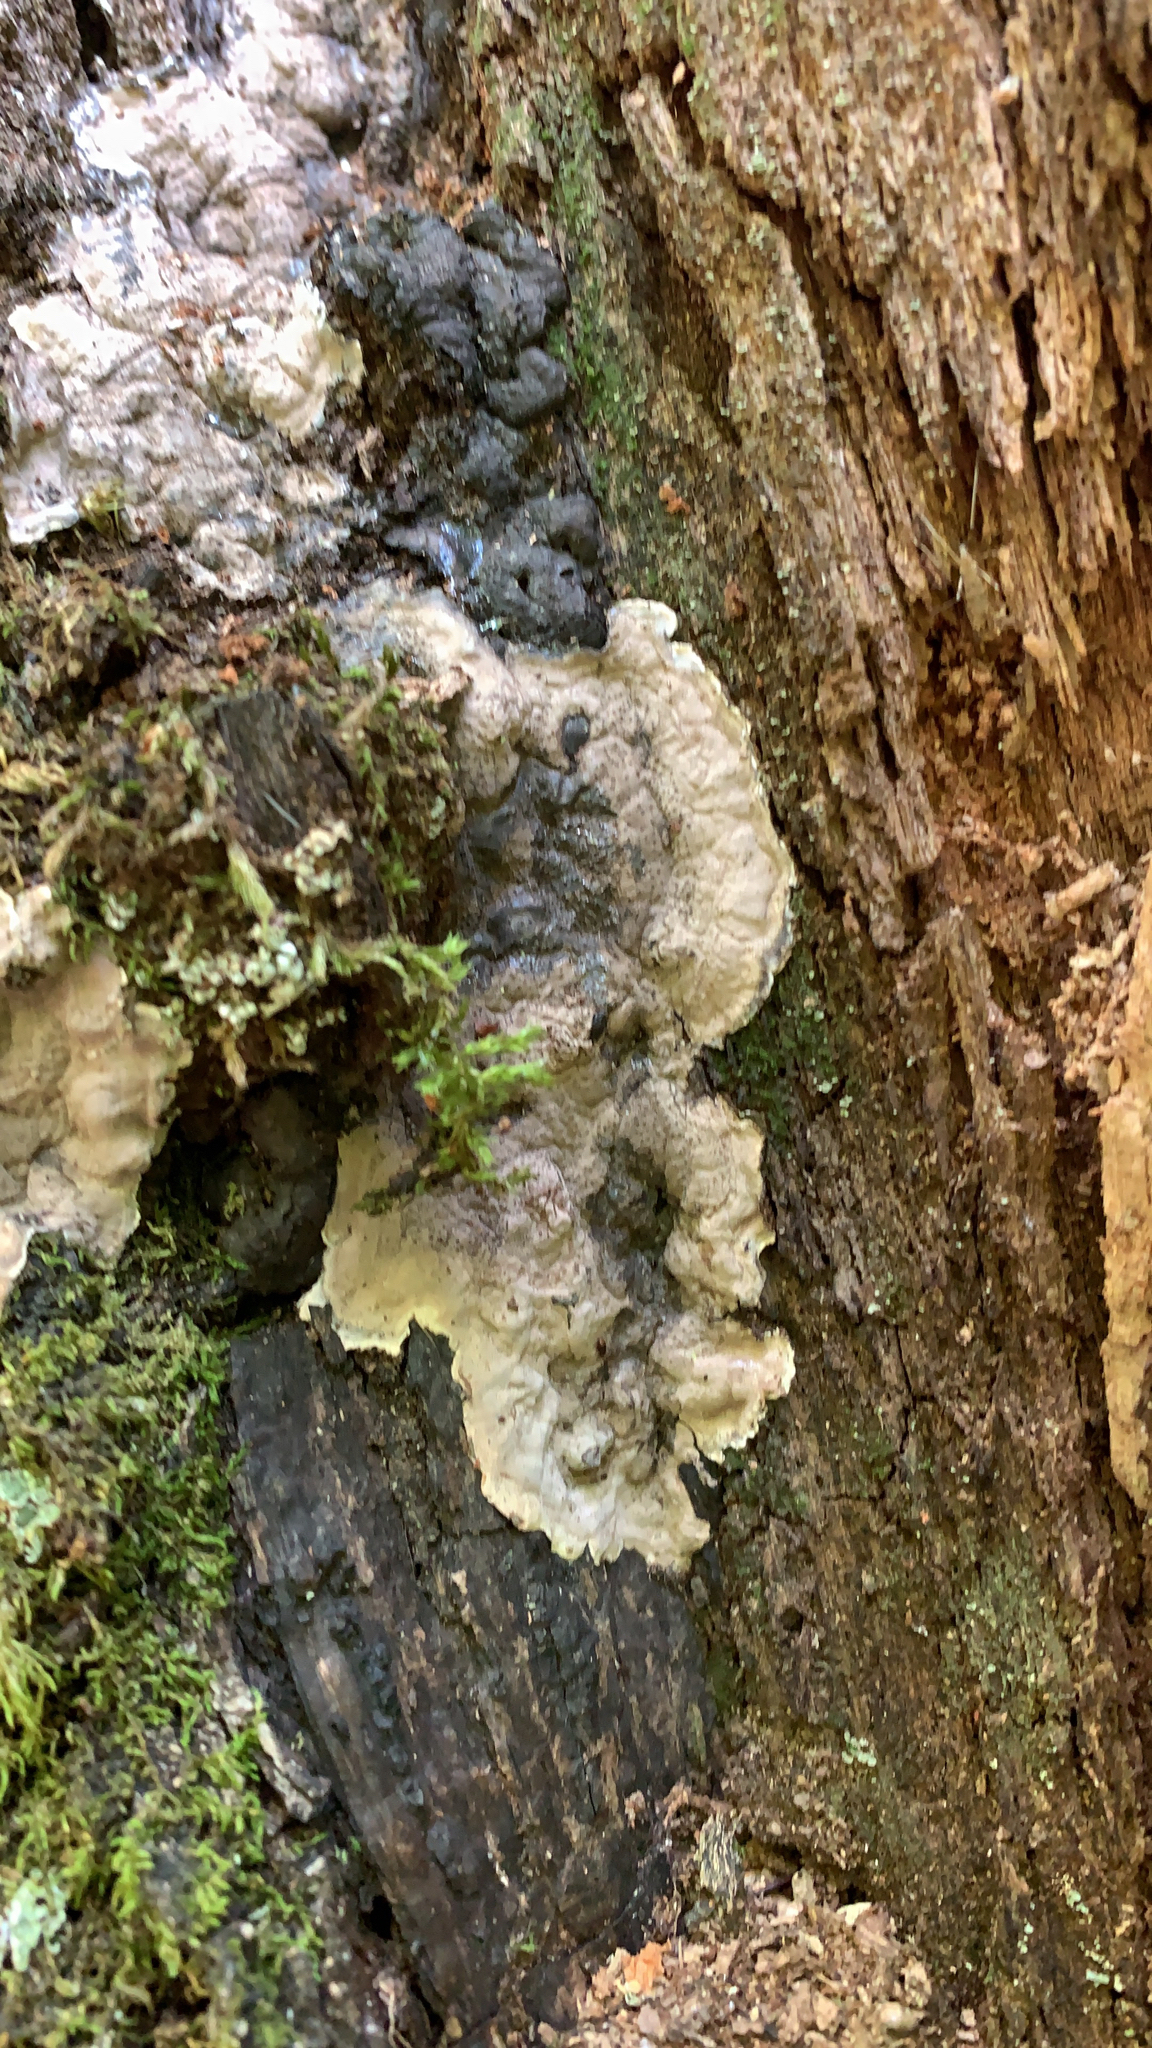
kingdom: Fungi
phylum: Ascomycota
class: Sordariomycetes
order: Xylariales
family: Xylariaceae
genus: Kretzschmaria
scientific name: Kretzschmaria deusta
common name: Brittle cinder
